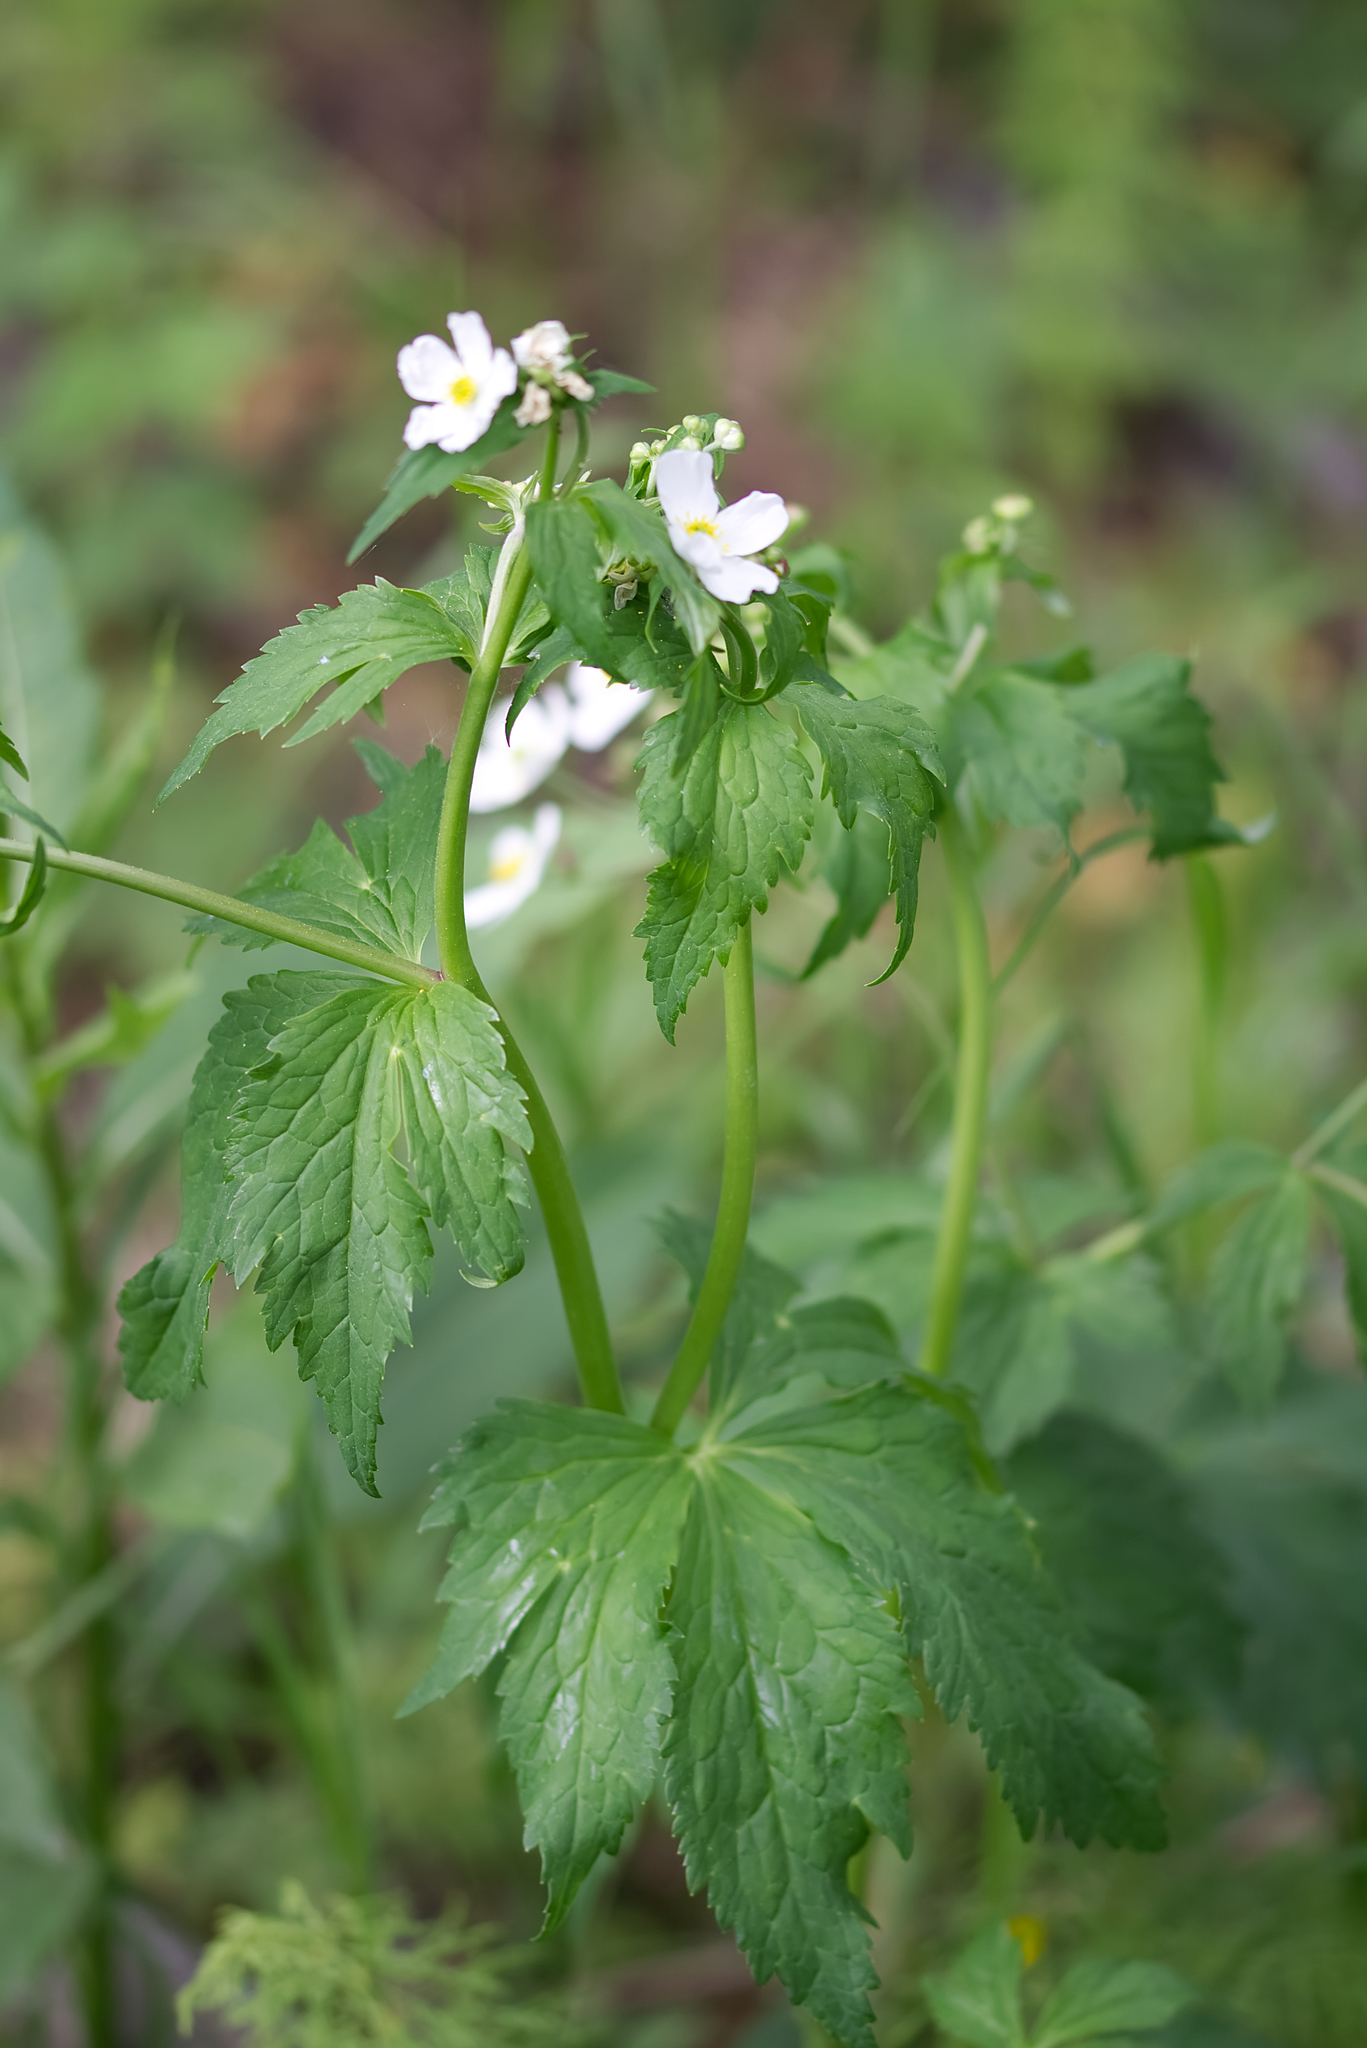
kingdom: Plantae
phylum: Tracheophyta
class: Magnoliopsida
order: Ranunculales
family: Ranunculaceae
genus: Ranunculus
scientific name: Ranunculus aconitifolius
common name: Aconite-leaved buttercup
